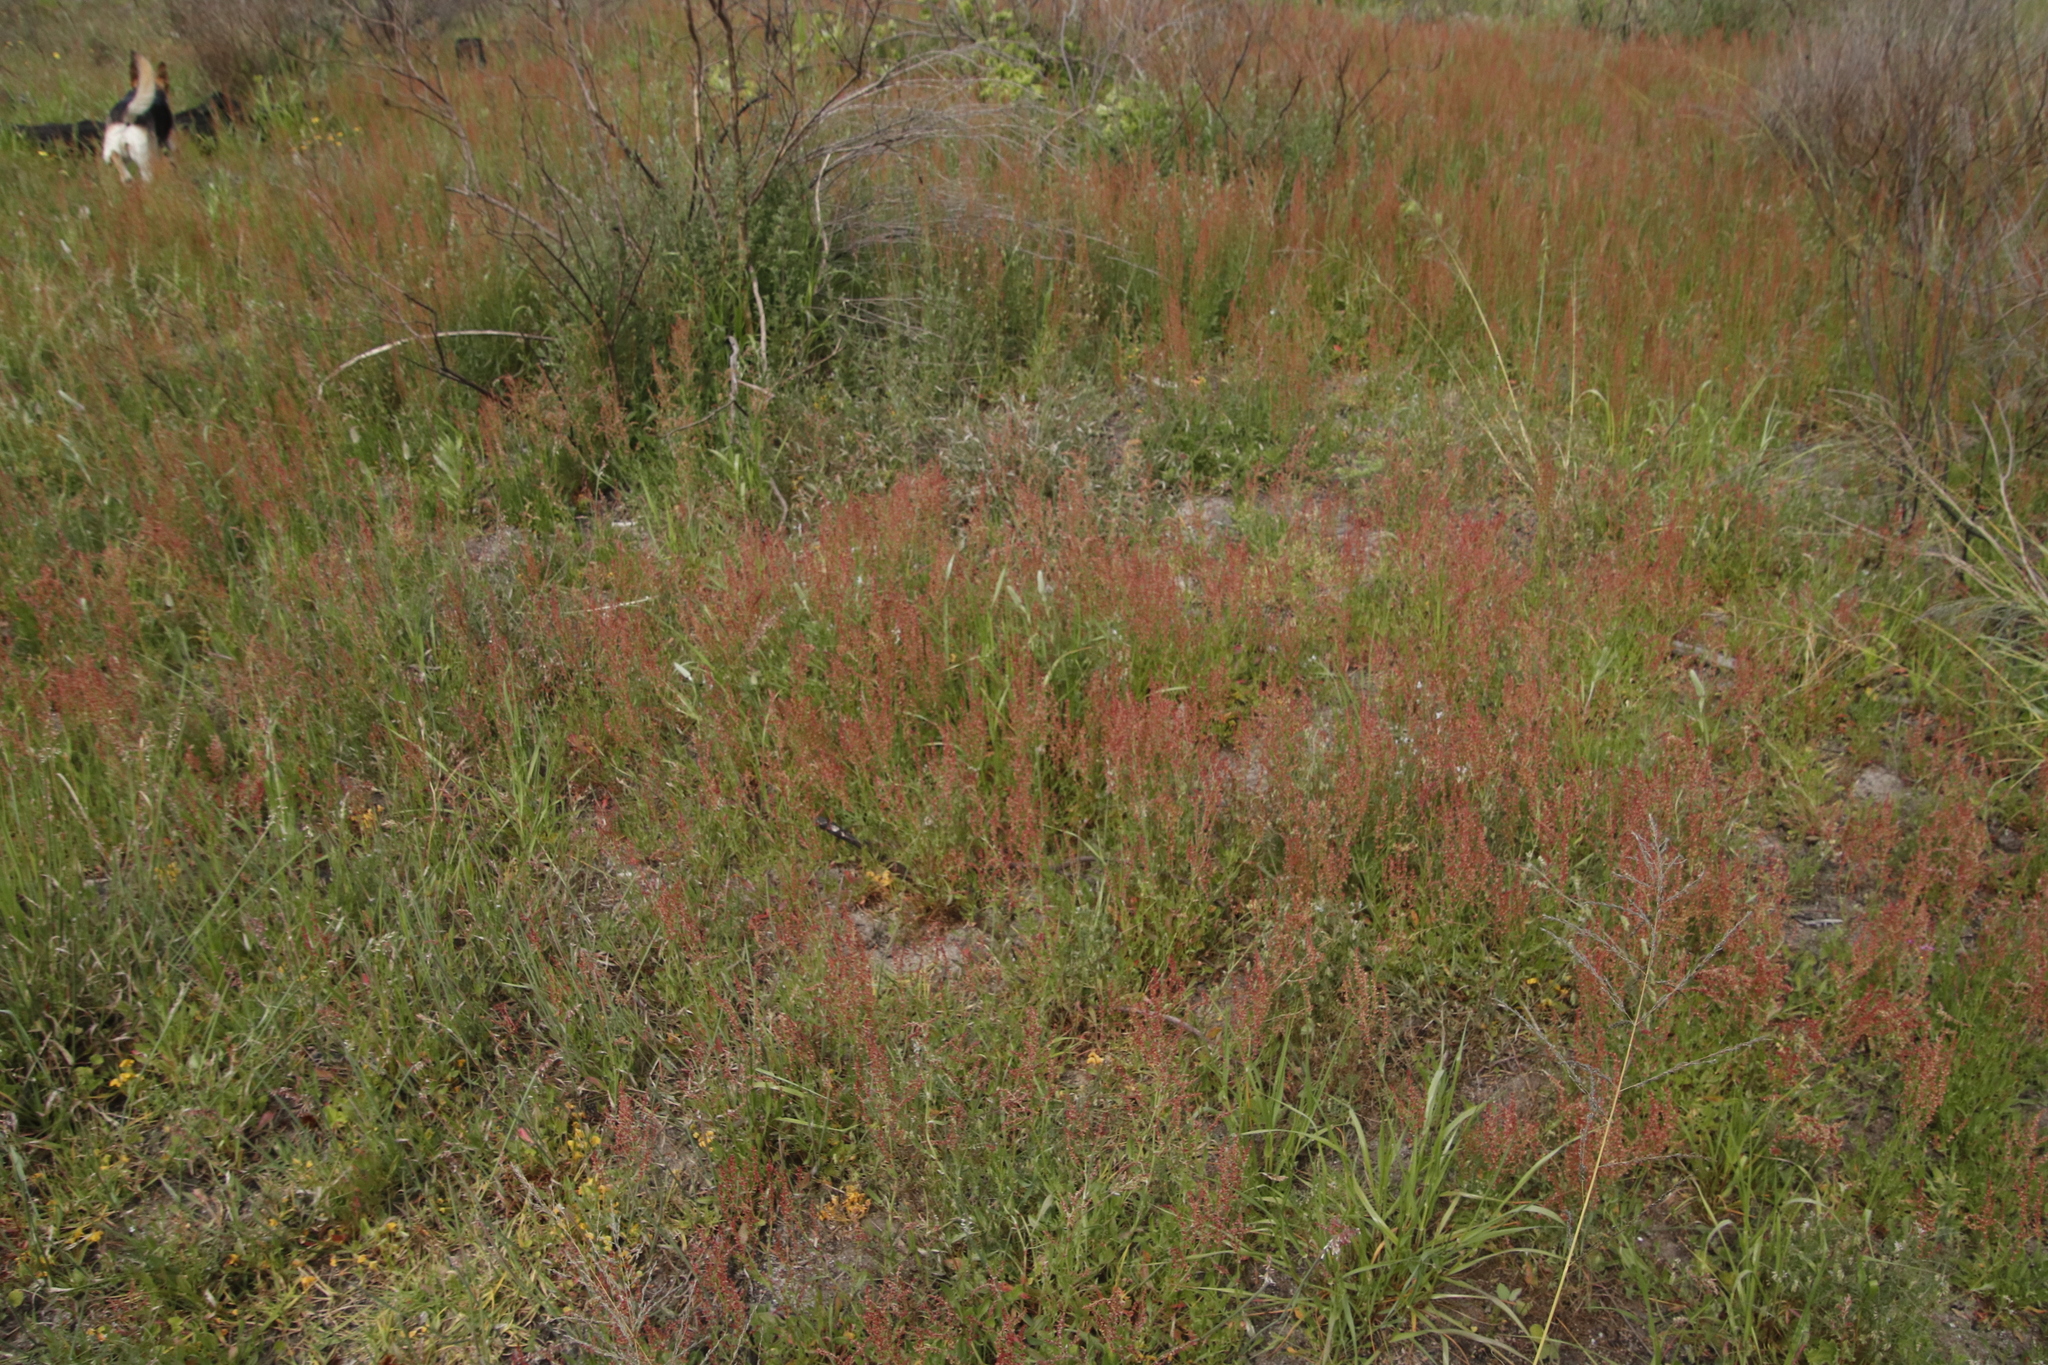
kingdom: Plantae
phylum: Tracheophyta
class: Magnoliopsida
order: Caryophyllales
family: Polygonaceae
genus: Rumex
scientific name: Rumex acetosella
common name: Common sheep sorrel
